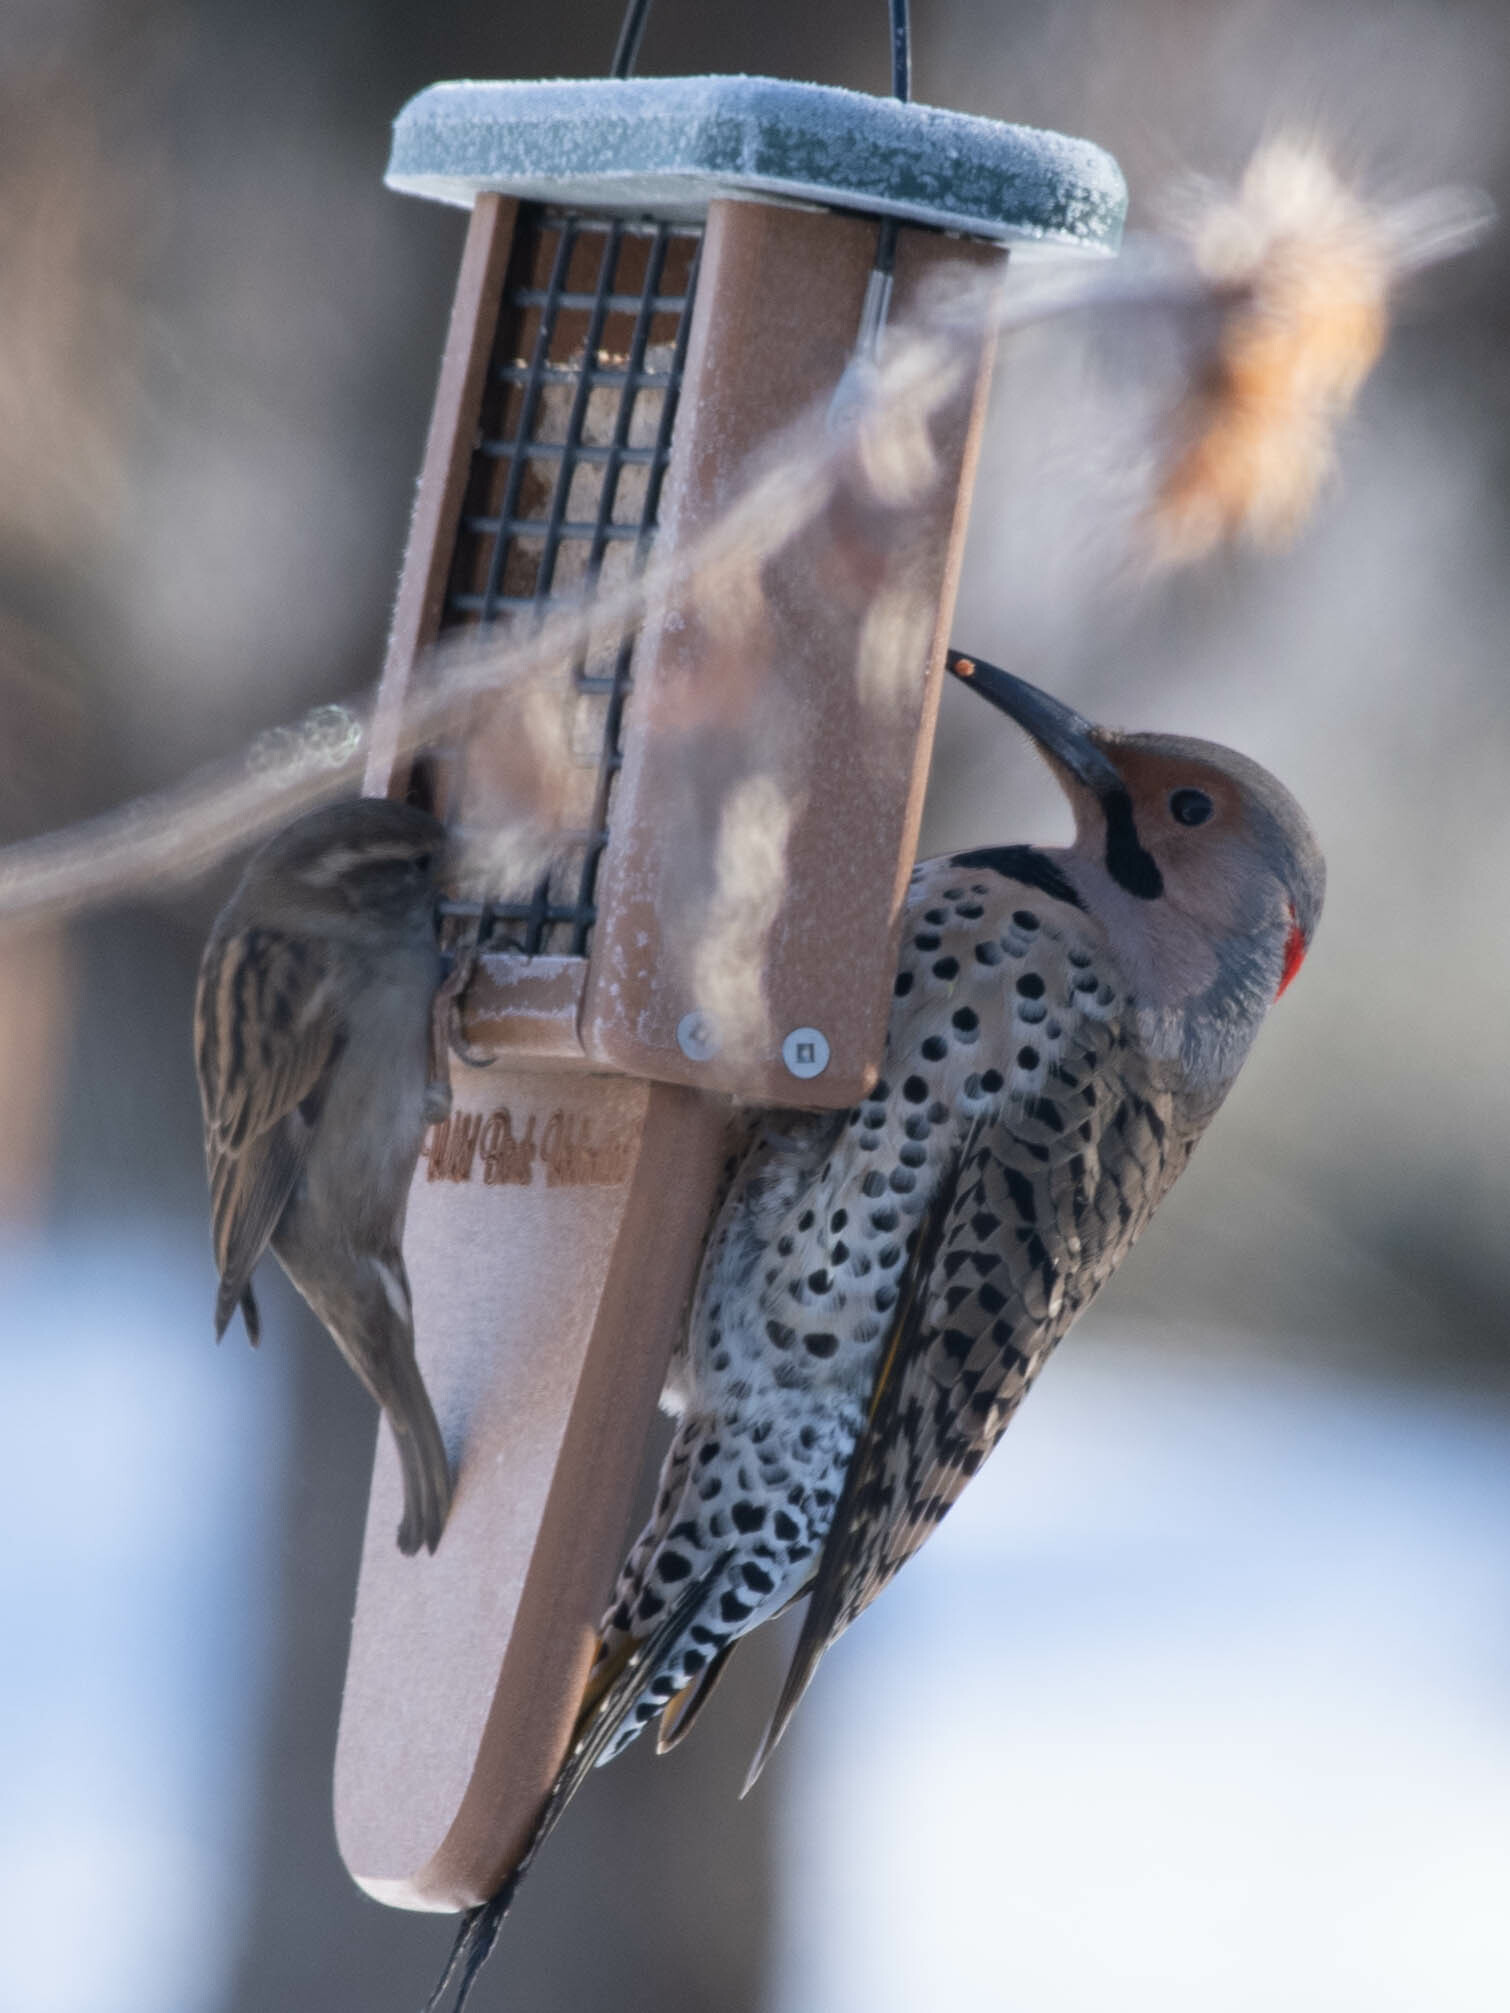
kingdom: Animalia
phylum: Chordata
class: Aves
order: Piciformes
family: Picidae
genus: Colaptes
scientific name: Colaptes auratus
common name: Northern flicker
